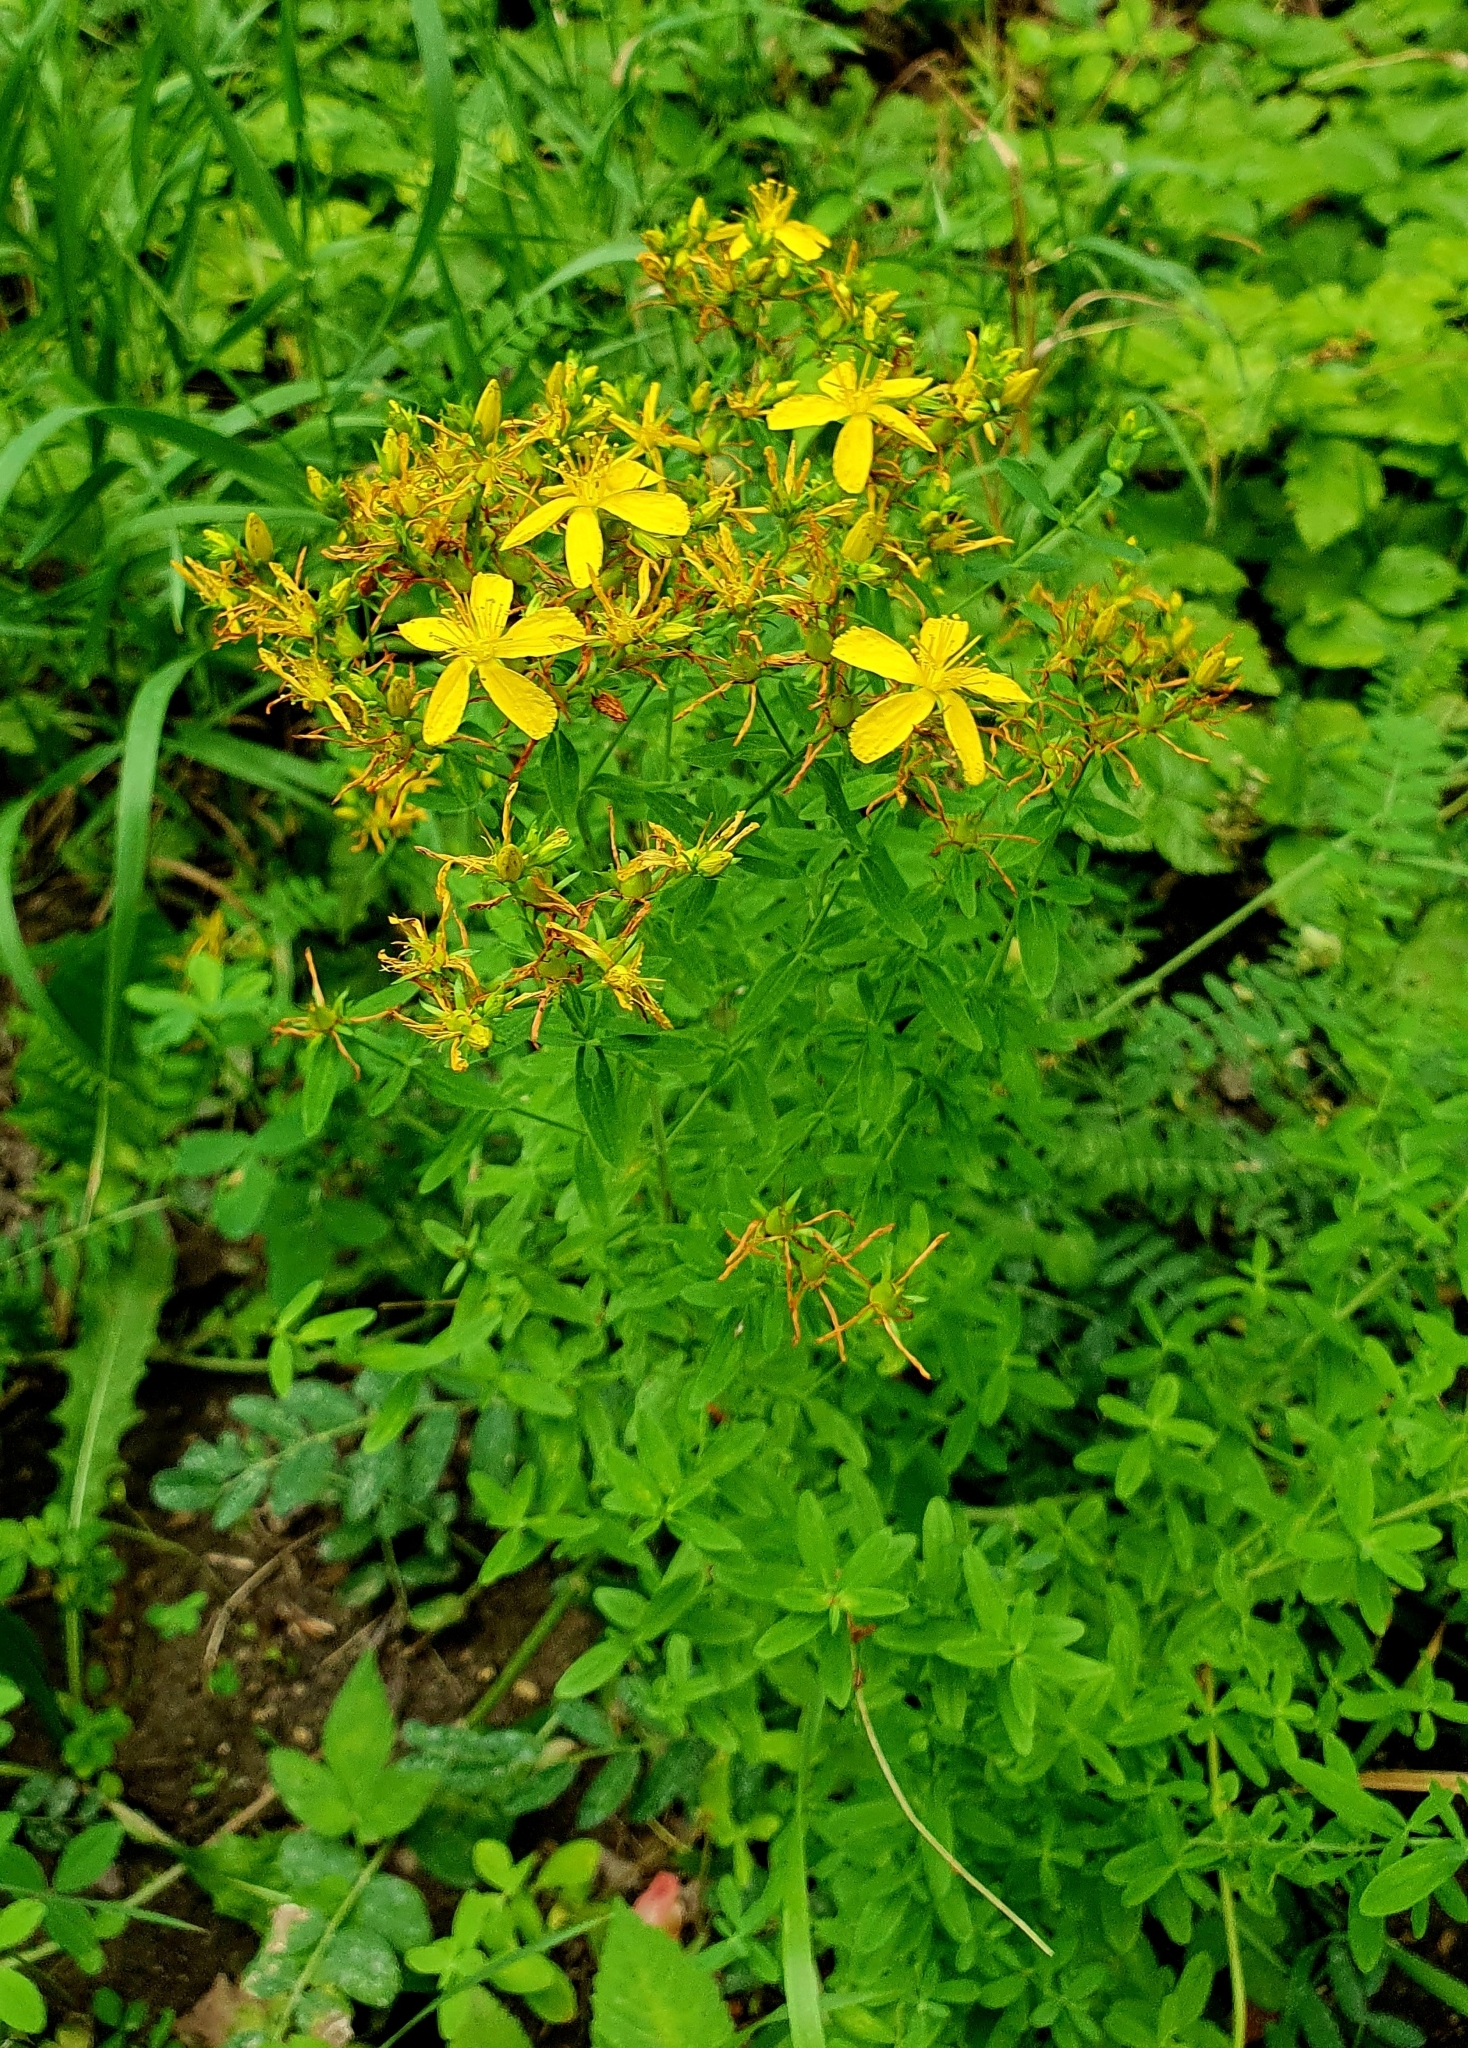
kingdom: Plantae
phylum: Tracheophyta
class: Magnoliopsida
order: Malpighiales
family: Hypericaceae
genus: Hypericum
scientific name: Hypericum perforatum
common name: Common st. johnswort
